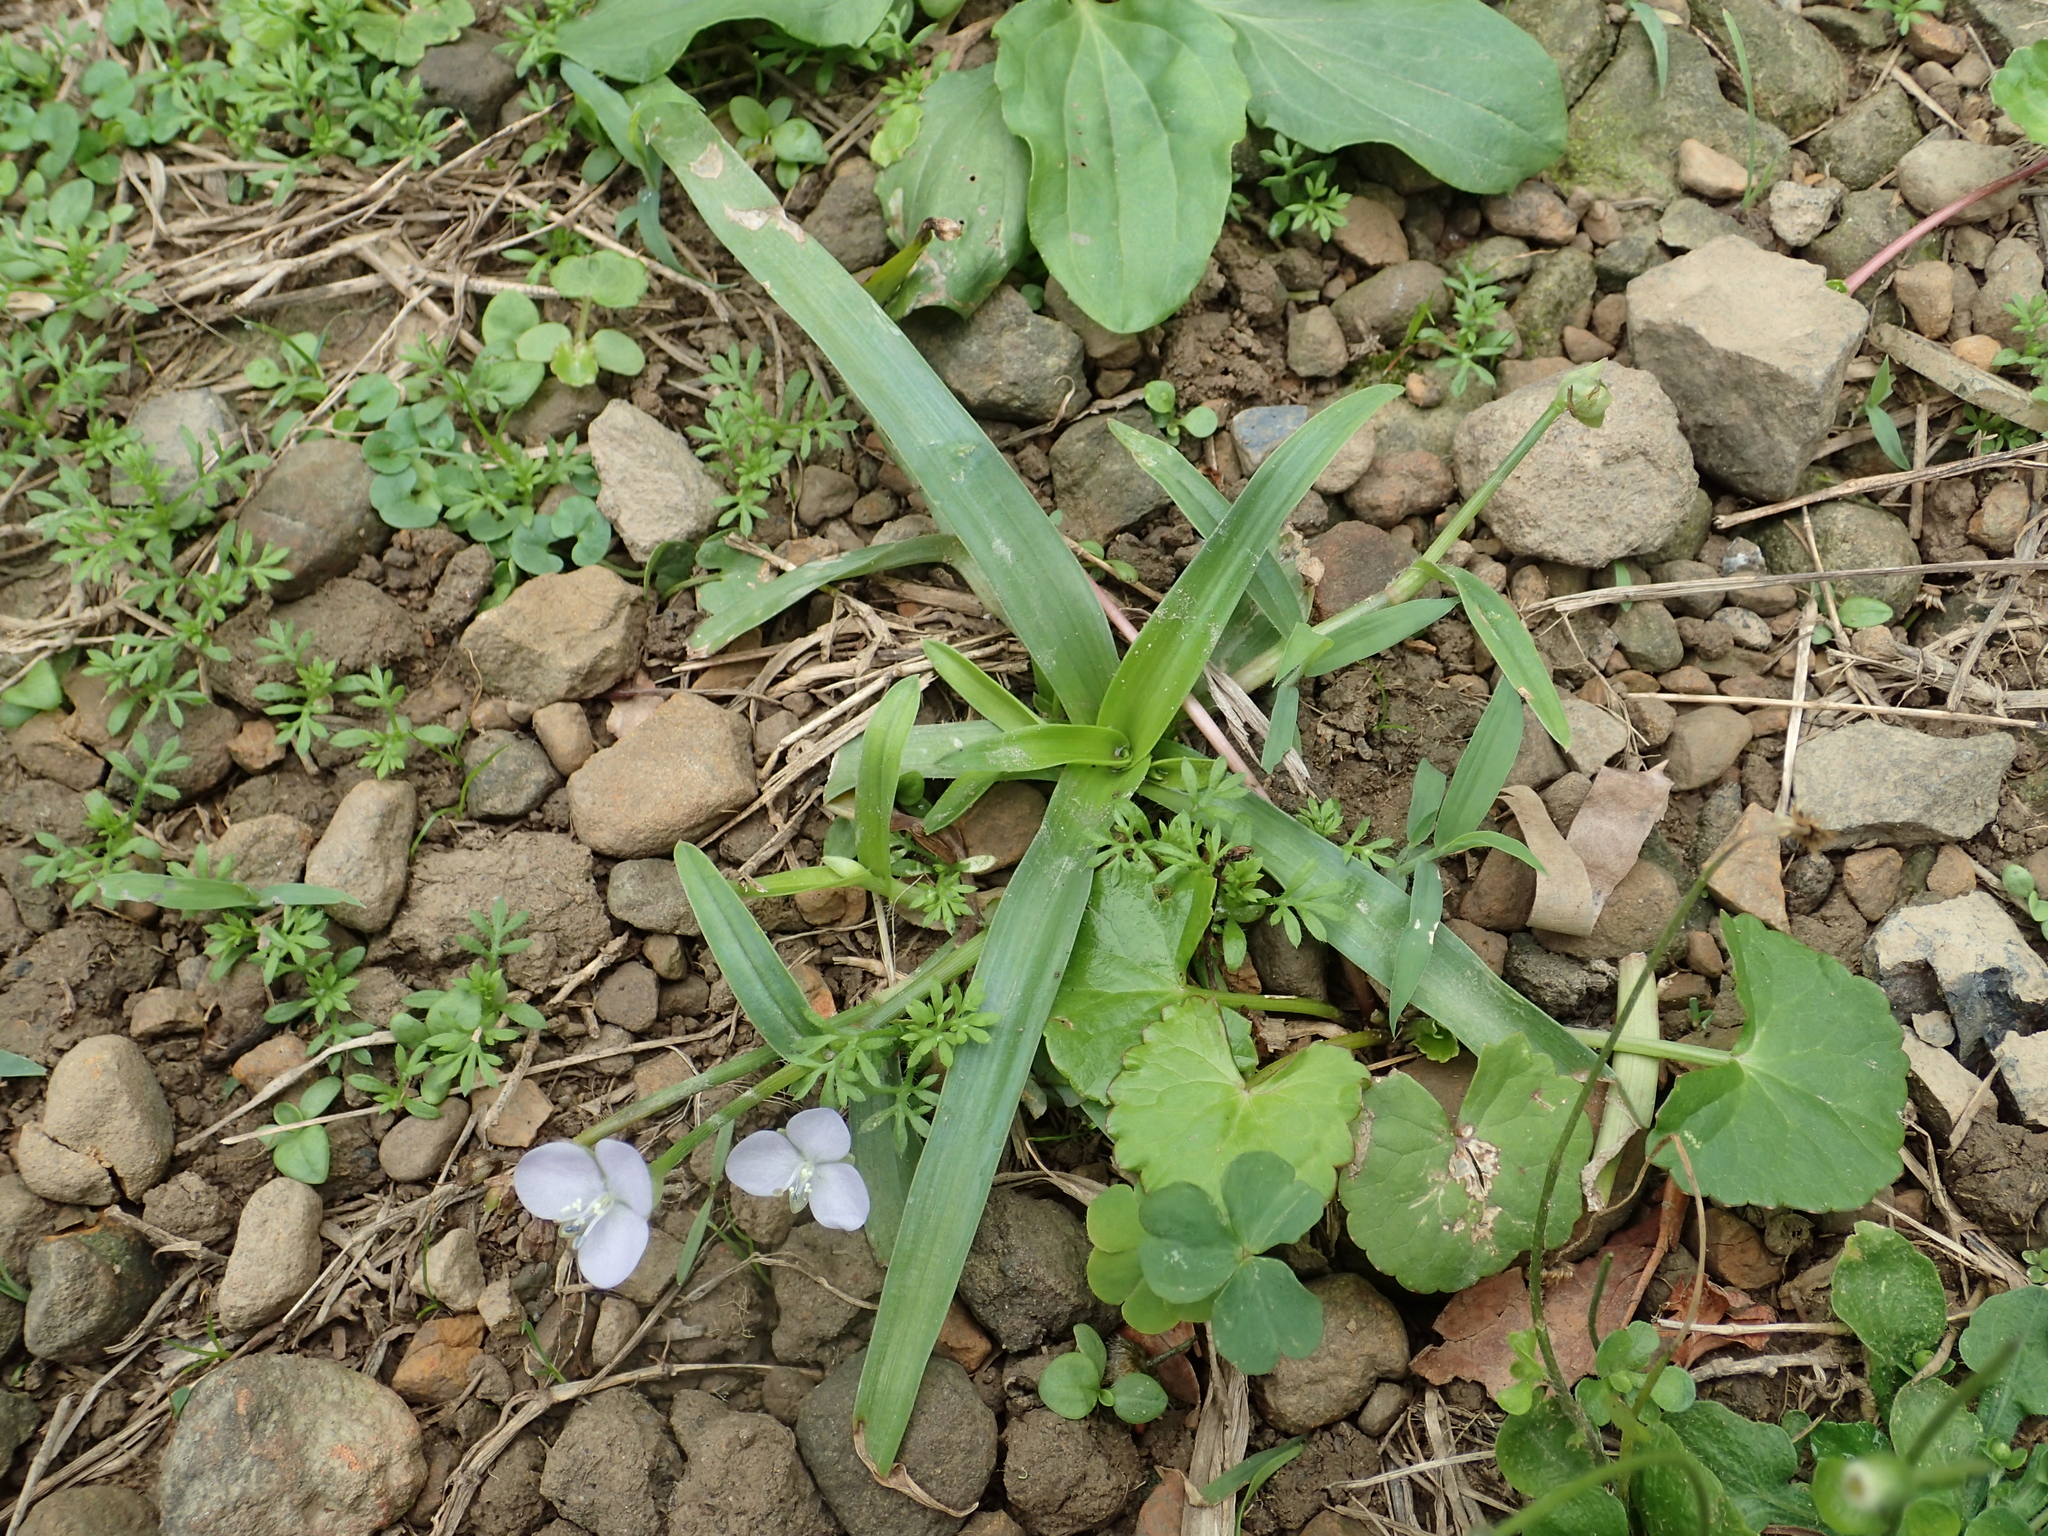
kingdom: Plantae
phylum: Tracheophyta
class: Liliopsida
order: Commelinales
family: Commelinaceae
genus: Murdannia
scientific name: Murdannia loriformis
